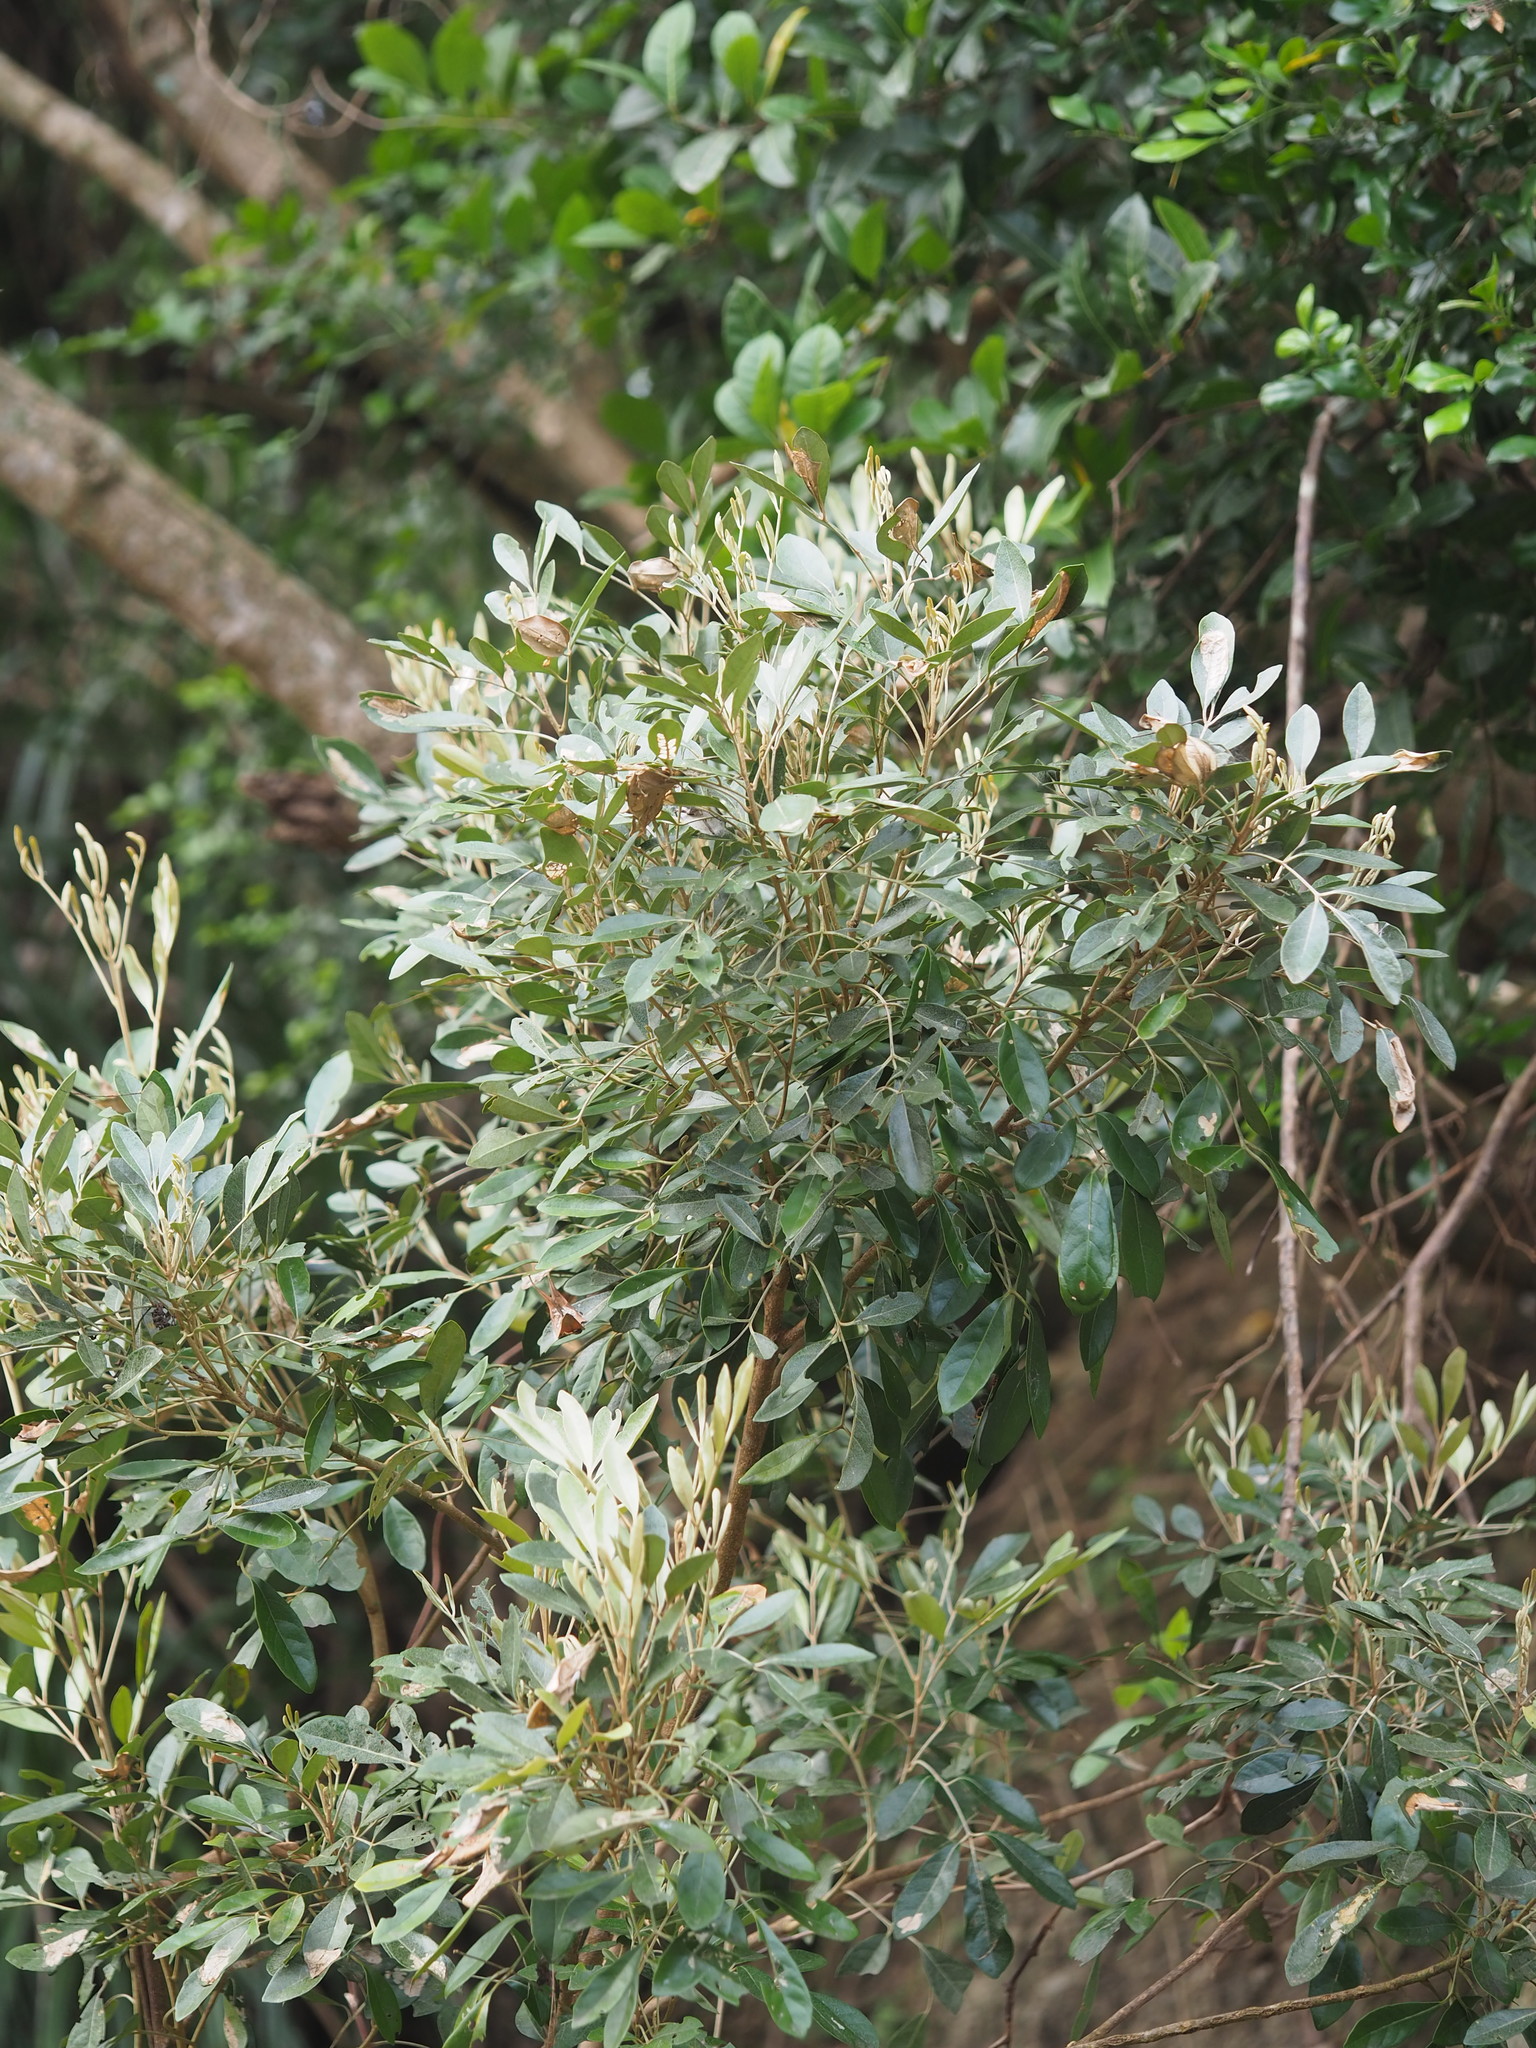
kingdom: Plantae
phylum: Tracheophyta
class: Magnoliopsida
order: Sapindales
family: Meliaceae
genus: Aglaia
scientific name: Aglaia elaeagnoidea
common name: Droopyleaf
